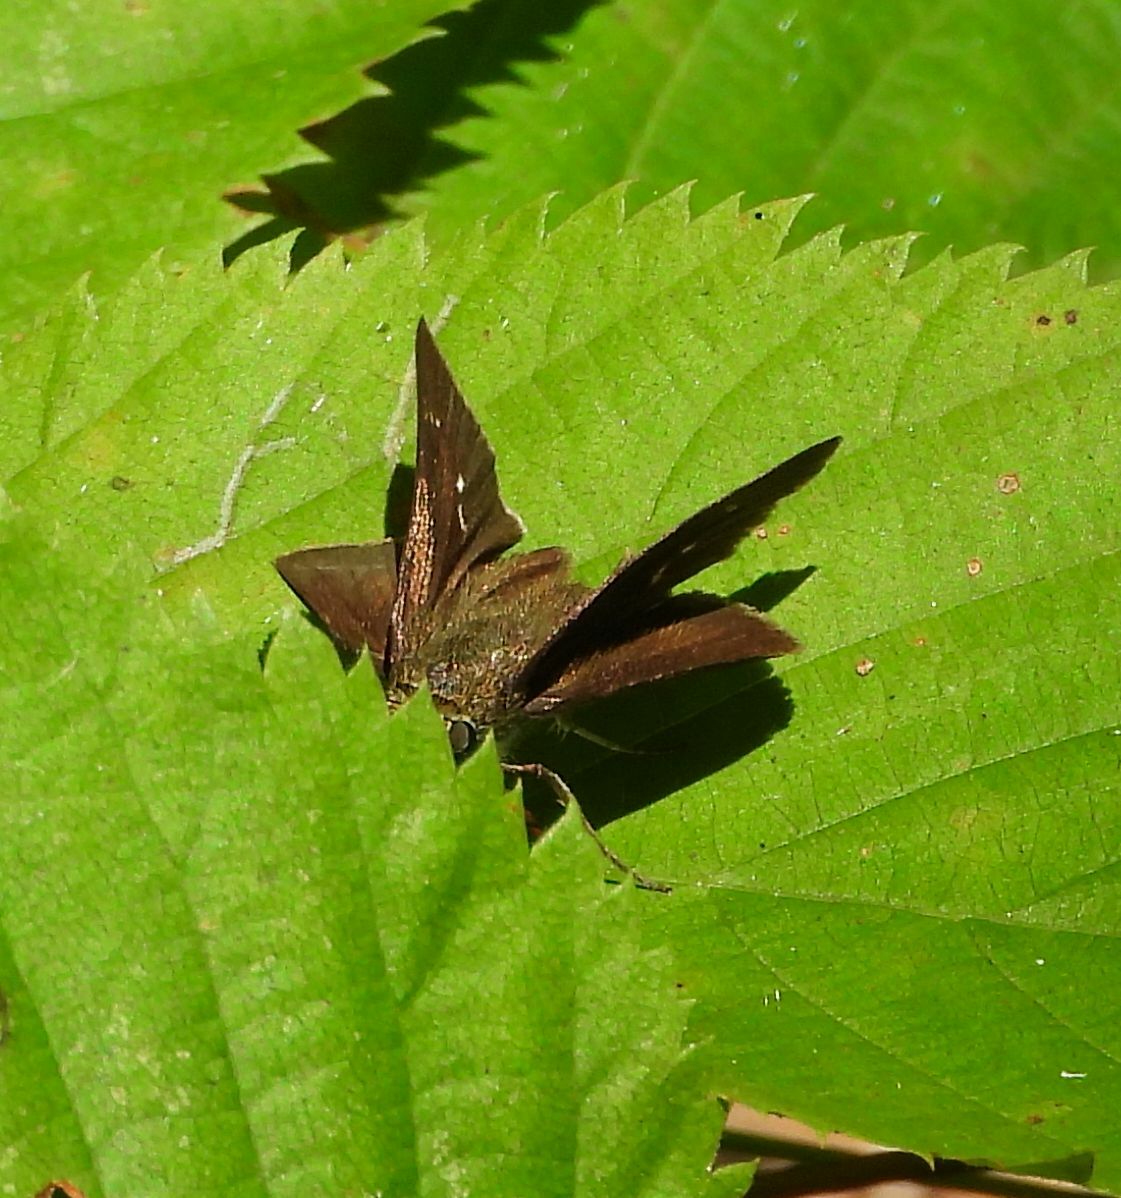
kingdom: Animalia
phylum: Arthropoda
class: Insecta
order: Lepidoptera
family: Hesperiidae
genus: Euphyes
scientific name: Euphyes vestris
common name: Dun skipper
